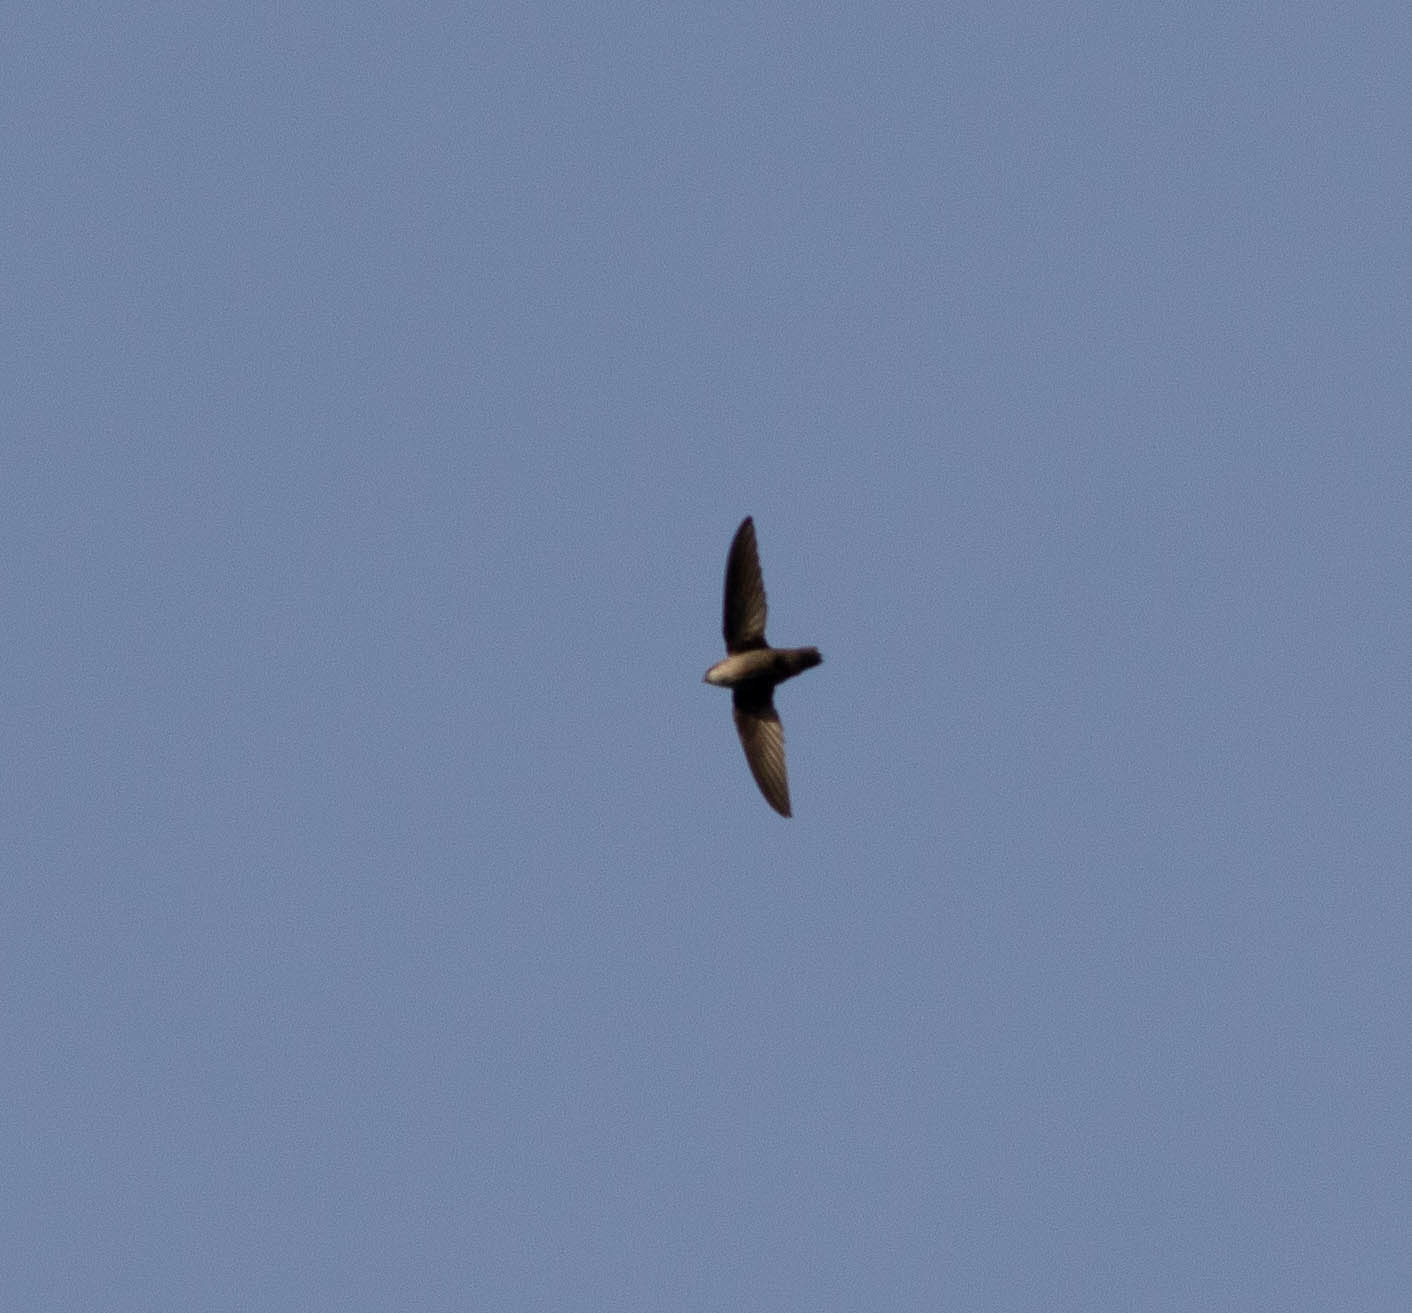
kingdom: Animalia
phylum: Chordata
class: Aves
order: Apodiformes
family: Apodidae
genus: Chaetura
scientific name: Chaetura pelagica
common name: Chimney swift
